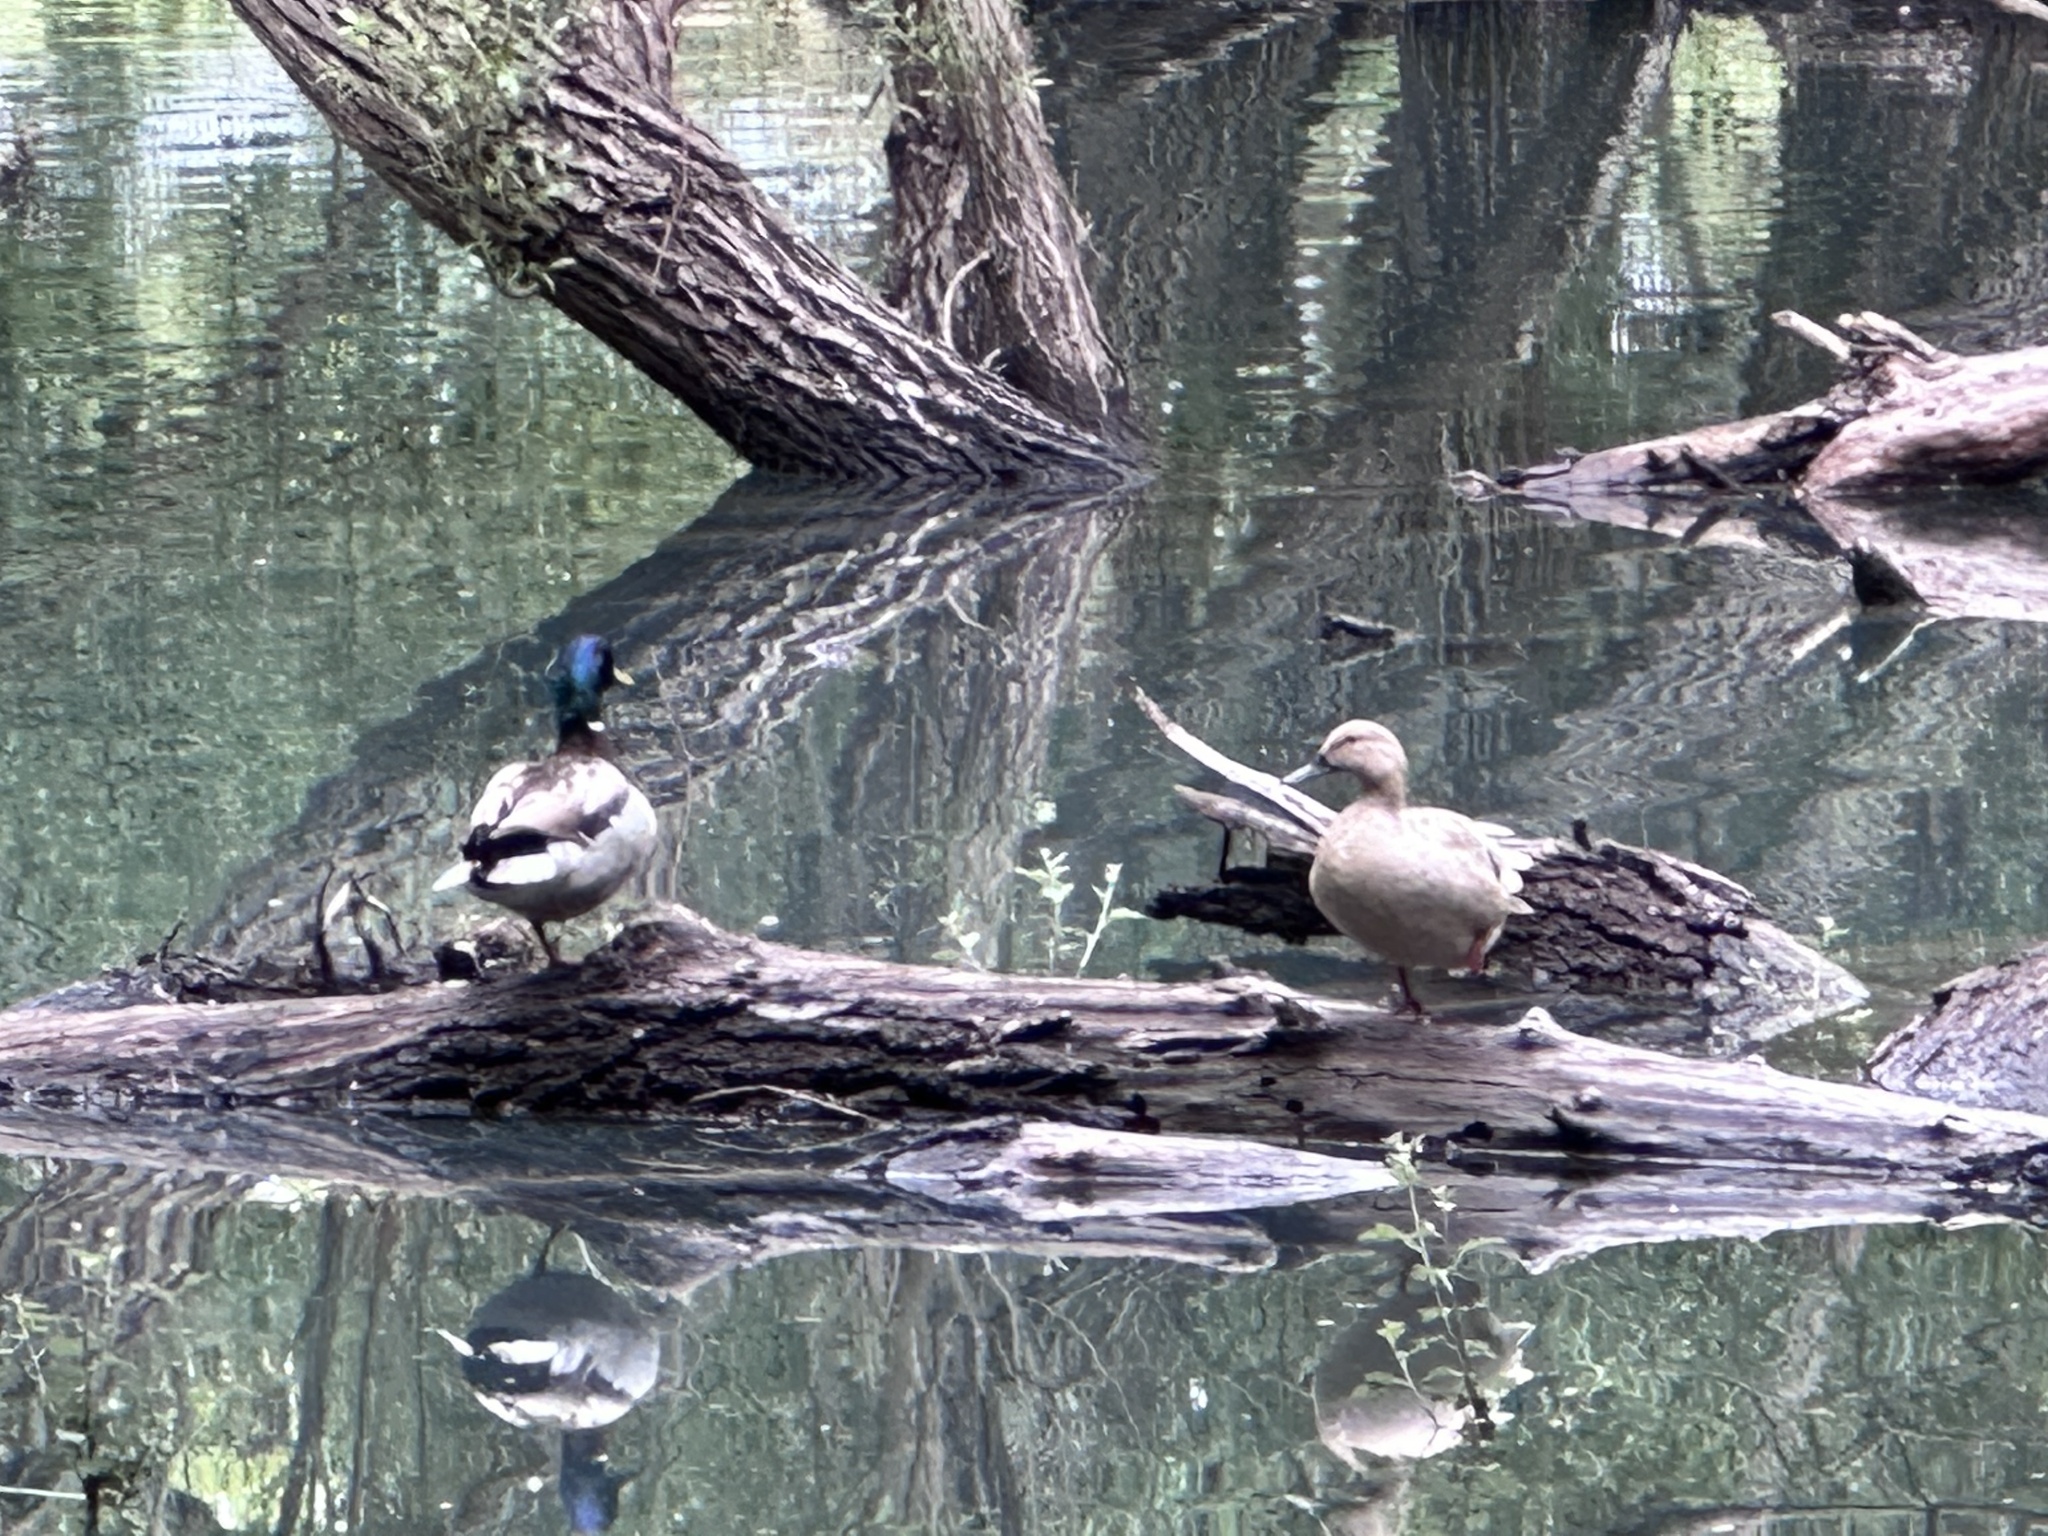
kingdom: Animalia
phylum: Chordata
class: Aves
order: Anseriformes
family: Anatidae
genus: Anas
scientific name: Anas platyrhynchos
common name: Mallard
